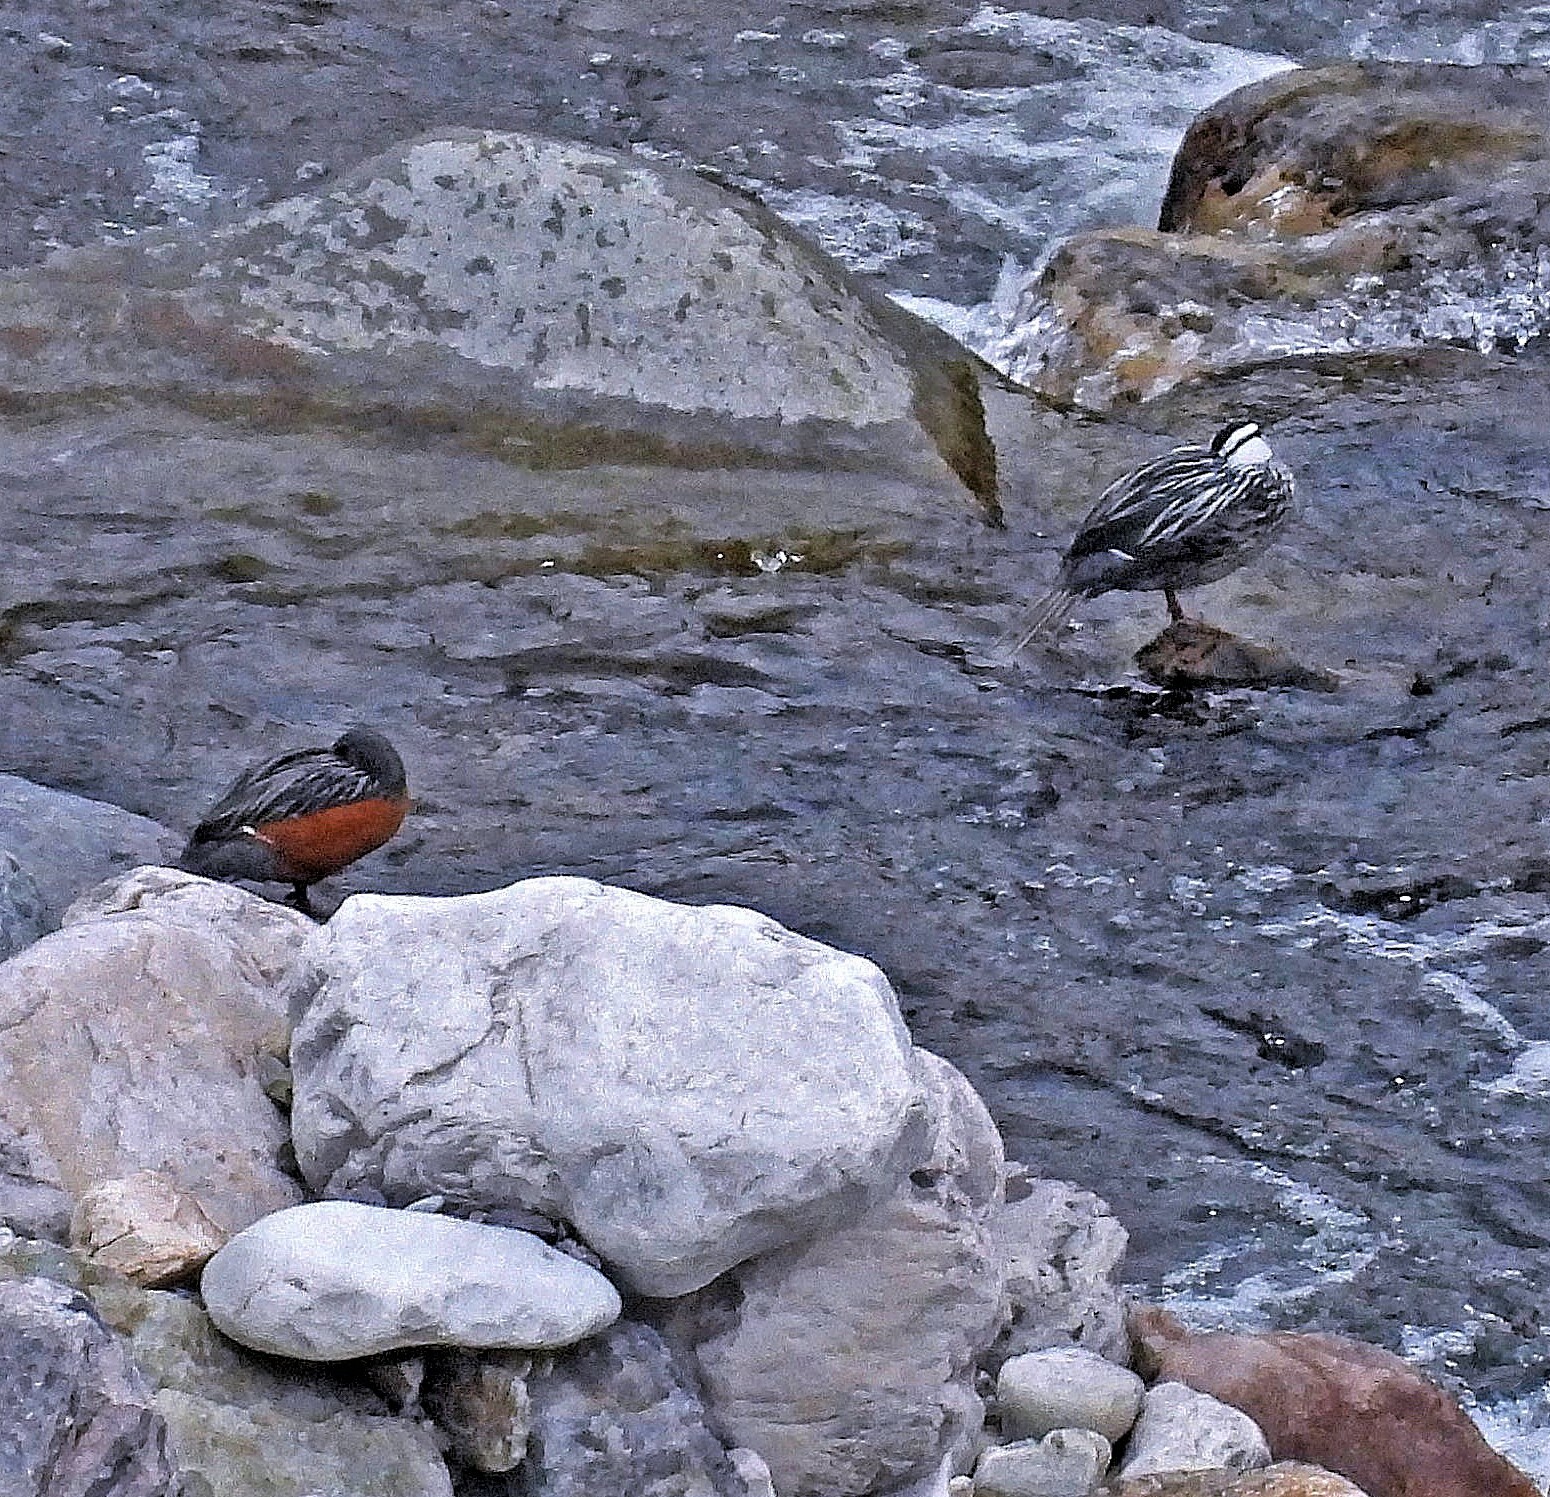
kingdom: Animalia
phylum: Chordata
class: Aves
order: Anseriformes
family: Anatidae
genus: Merganetta
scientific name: Merganetta armata
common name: Torrent duck
